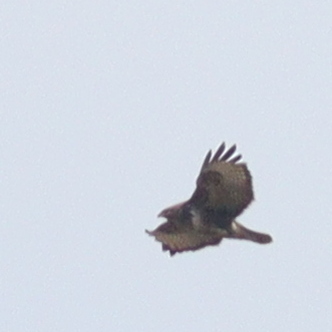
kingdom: Animalia
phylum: Chordata
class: Aves
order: Accipitriformes
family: Accipitridae
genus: Buteo
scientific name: Buteo buteo
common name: Common buzzard
